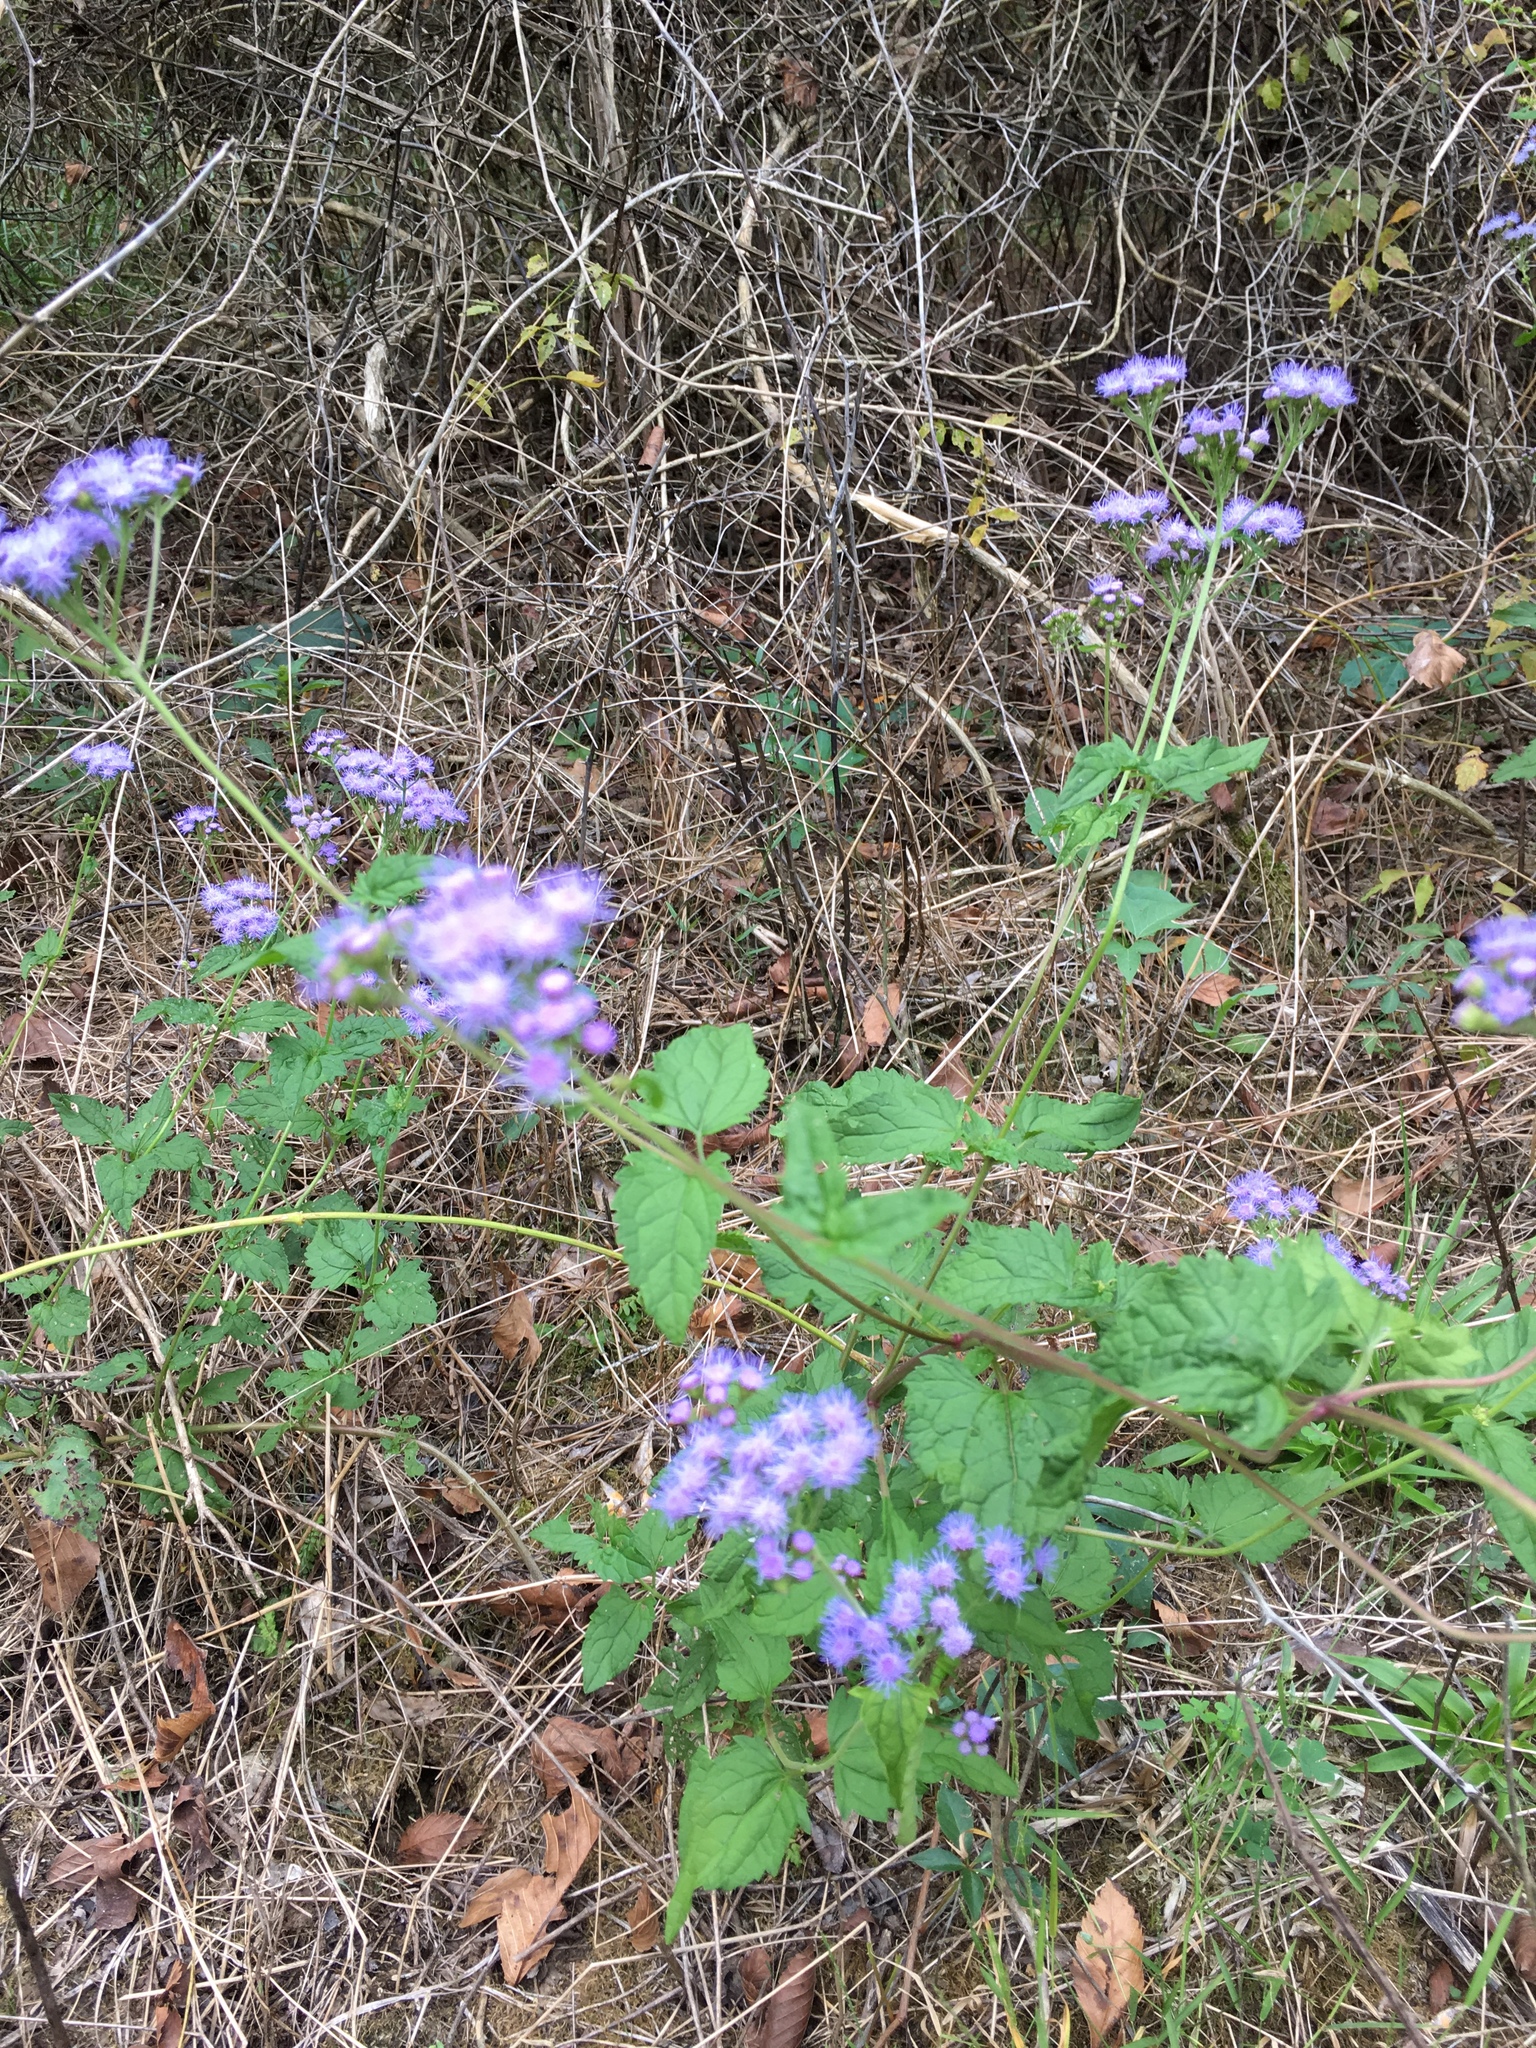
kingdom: Plantae
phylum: Tracheophyta
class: Magnoliopsida
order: Asterales
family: Asteraceae
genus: Conoclinium
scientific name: Conoclinium coelestinum
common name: Blue mistflower
